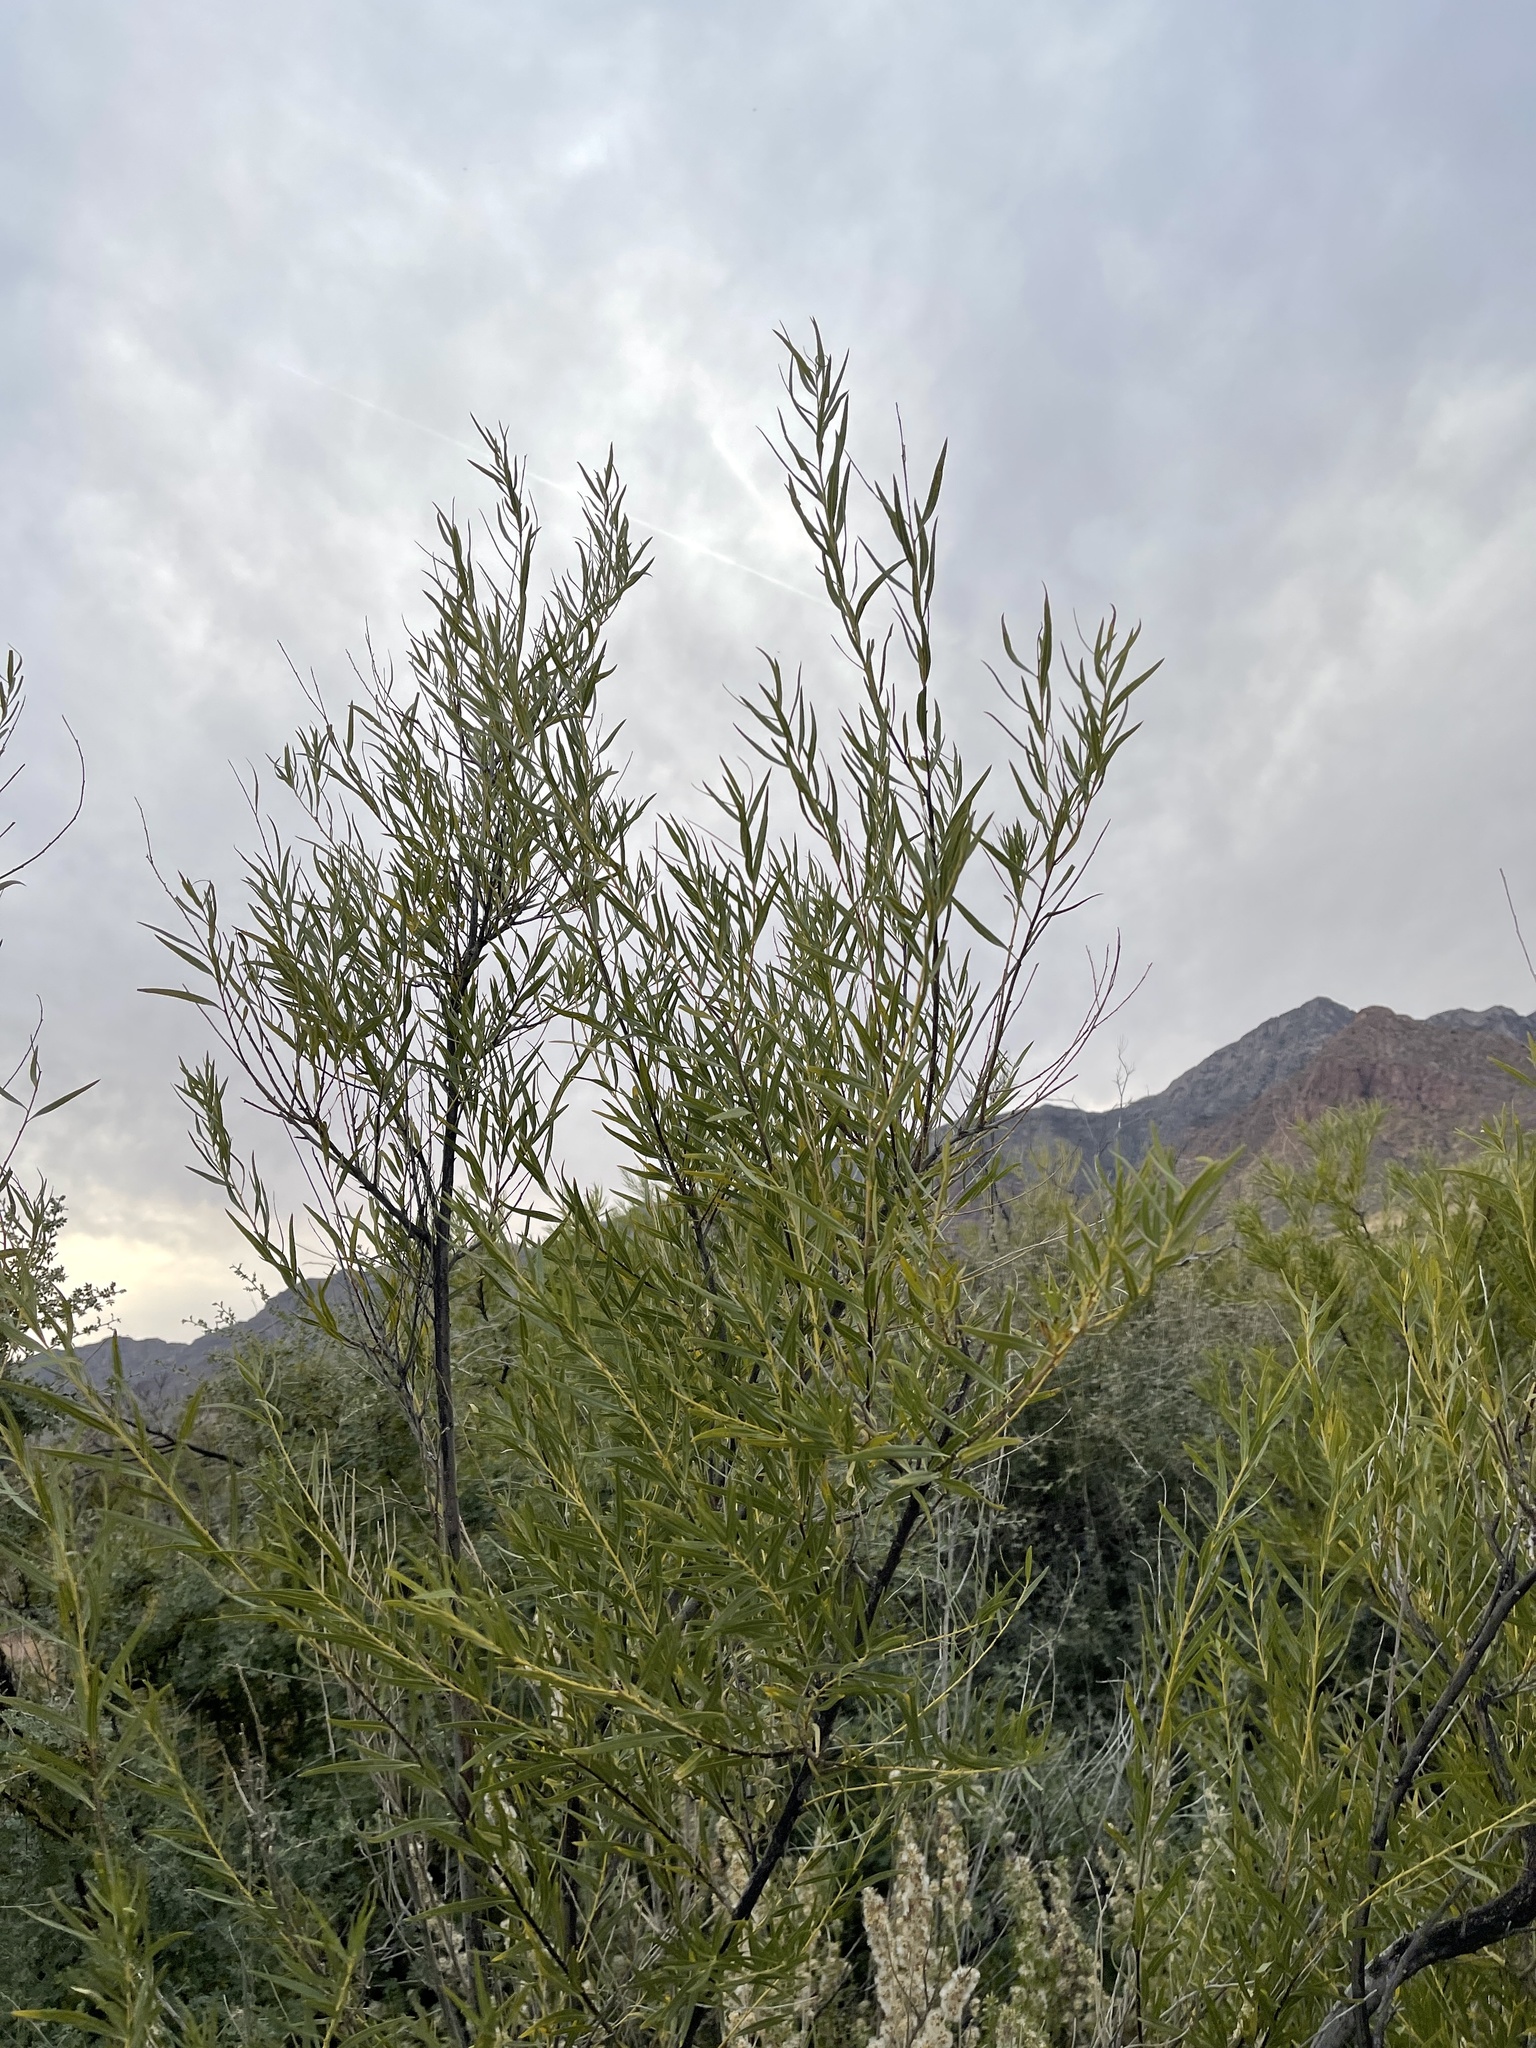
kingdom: Plantae
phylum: Tracheophyta
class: Magnoliopsida
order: Lamiales
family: Bignoniaceae
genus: Chilopsis
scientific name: Chilopsis linearis
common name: Desert-willow
